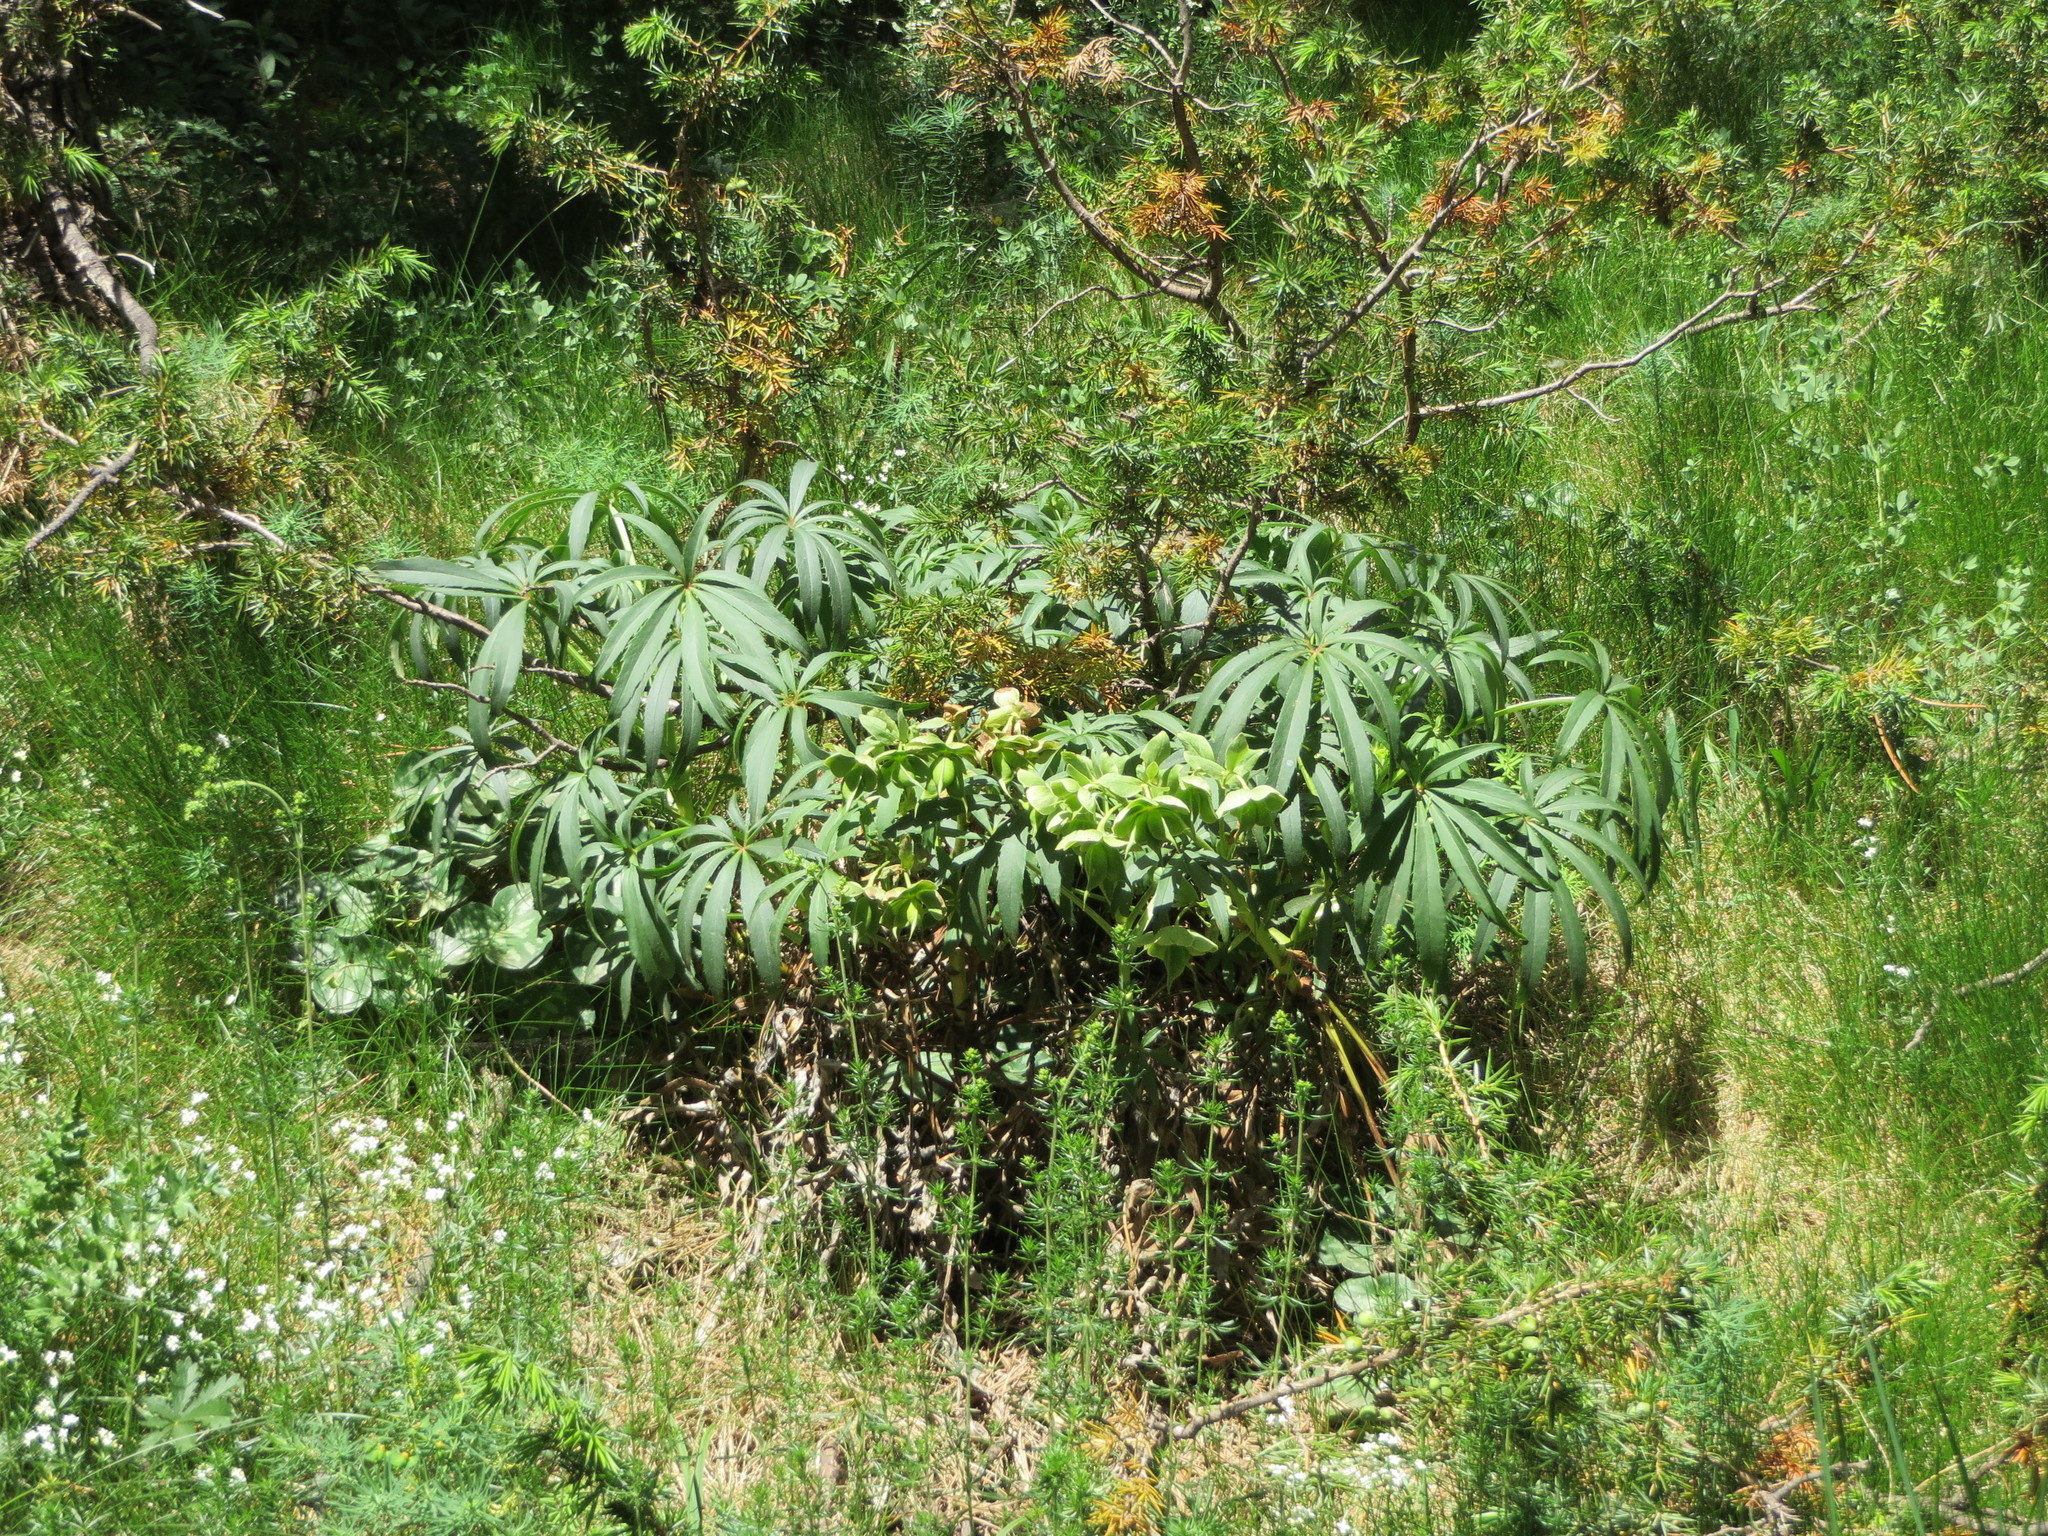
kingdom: Plantae
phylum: Tracheophyta
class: Magnoliopsida
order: Ranunculales
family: Ranunculaceae
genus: Helleborus
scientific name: Helleborus foetidus
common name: Stinking hellebore
